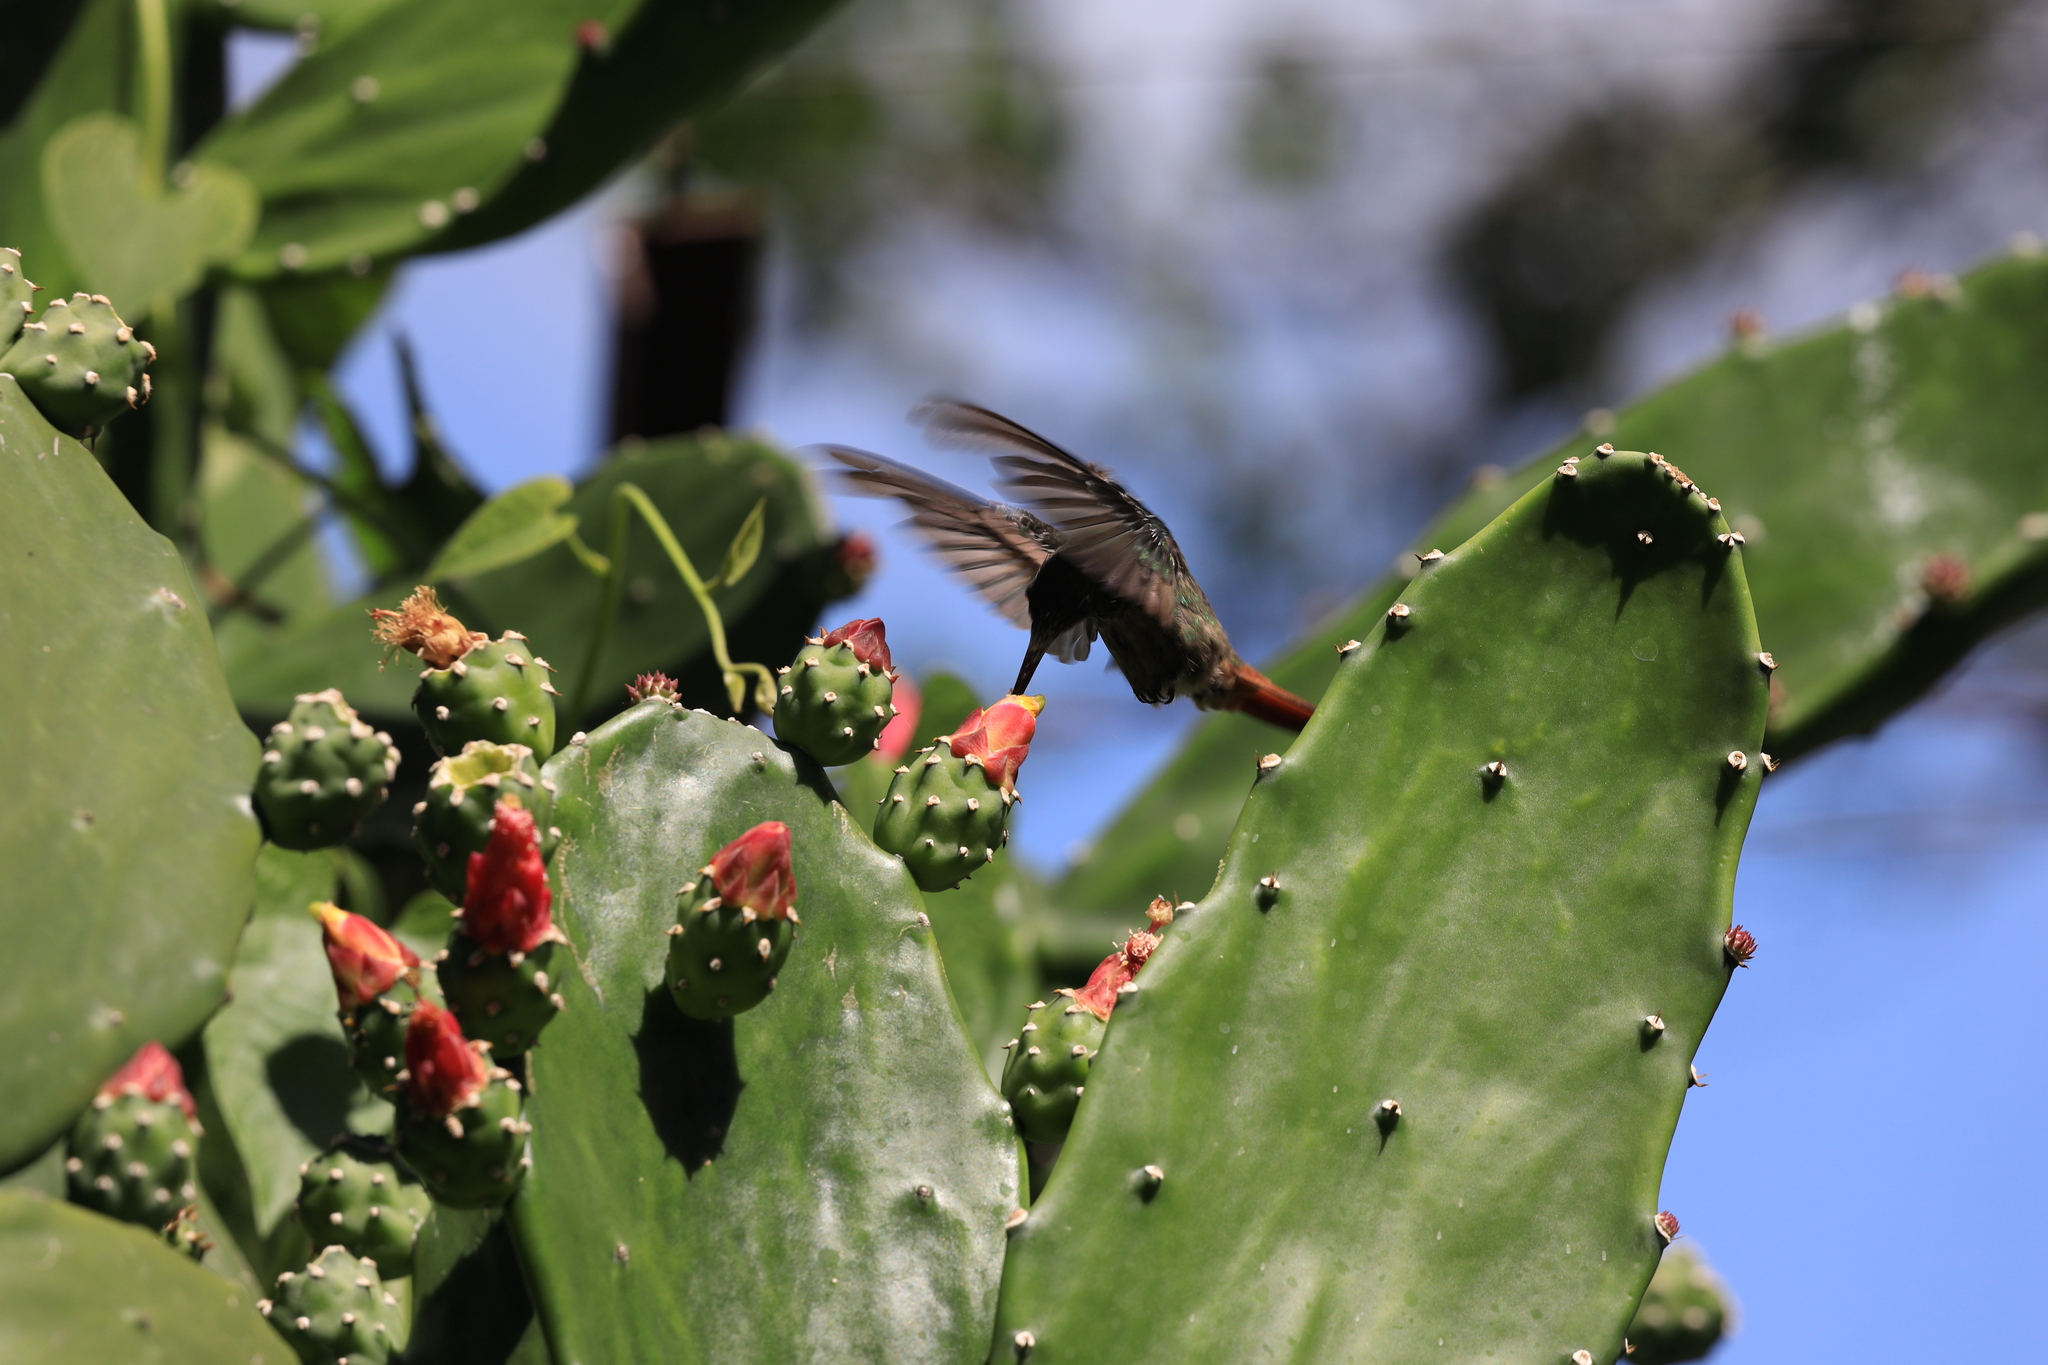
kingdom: Animalia
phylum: Chordata
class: Aves
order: Apodiformes
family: Trochilidae
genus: Amazilia
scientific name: Amazilia tzacatl
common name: Rufous-tailed hummingbird
